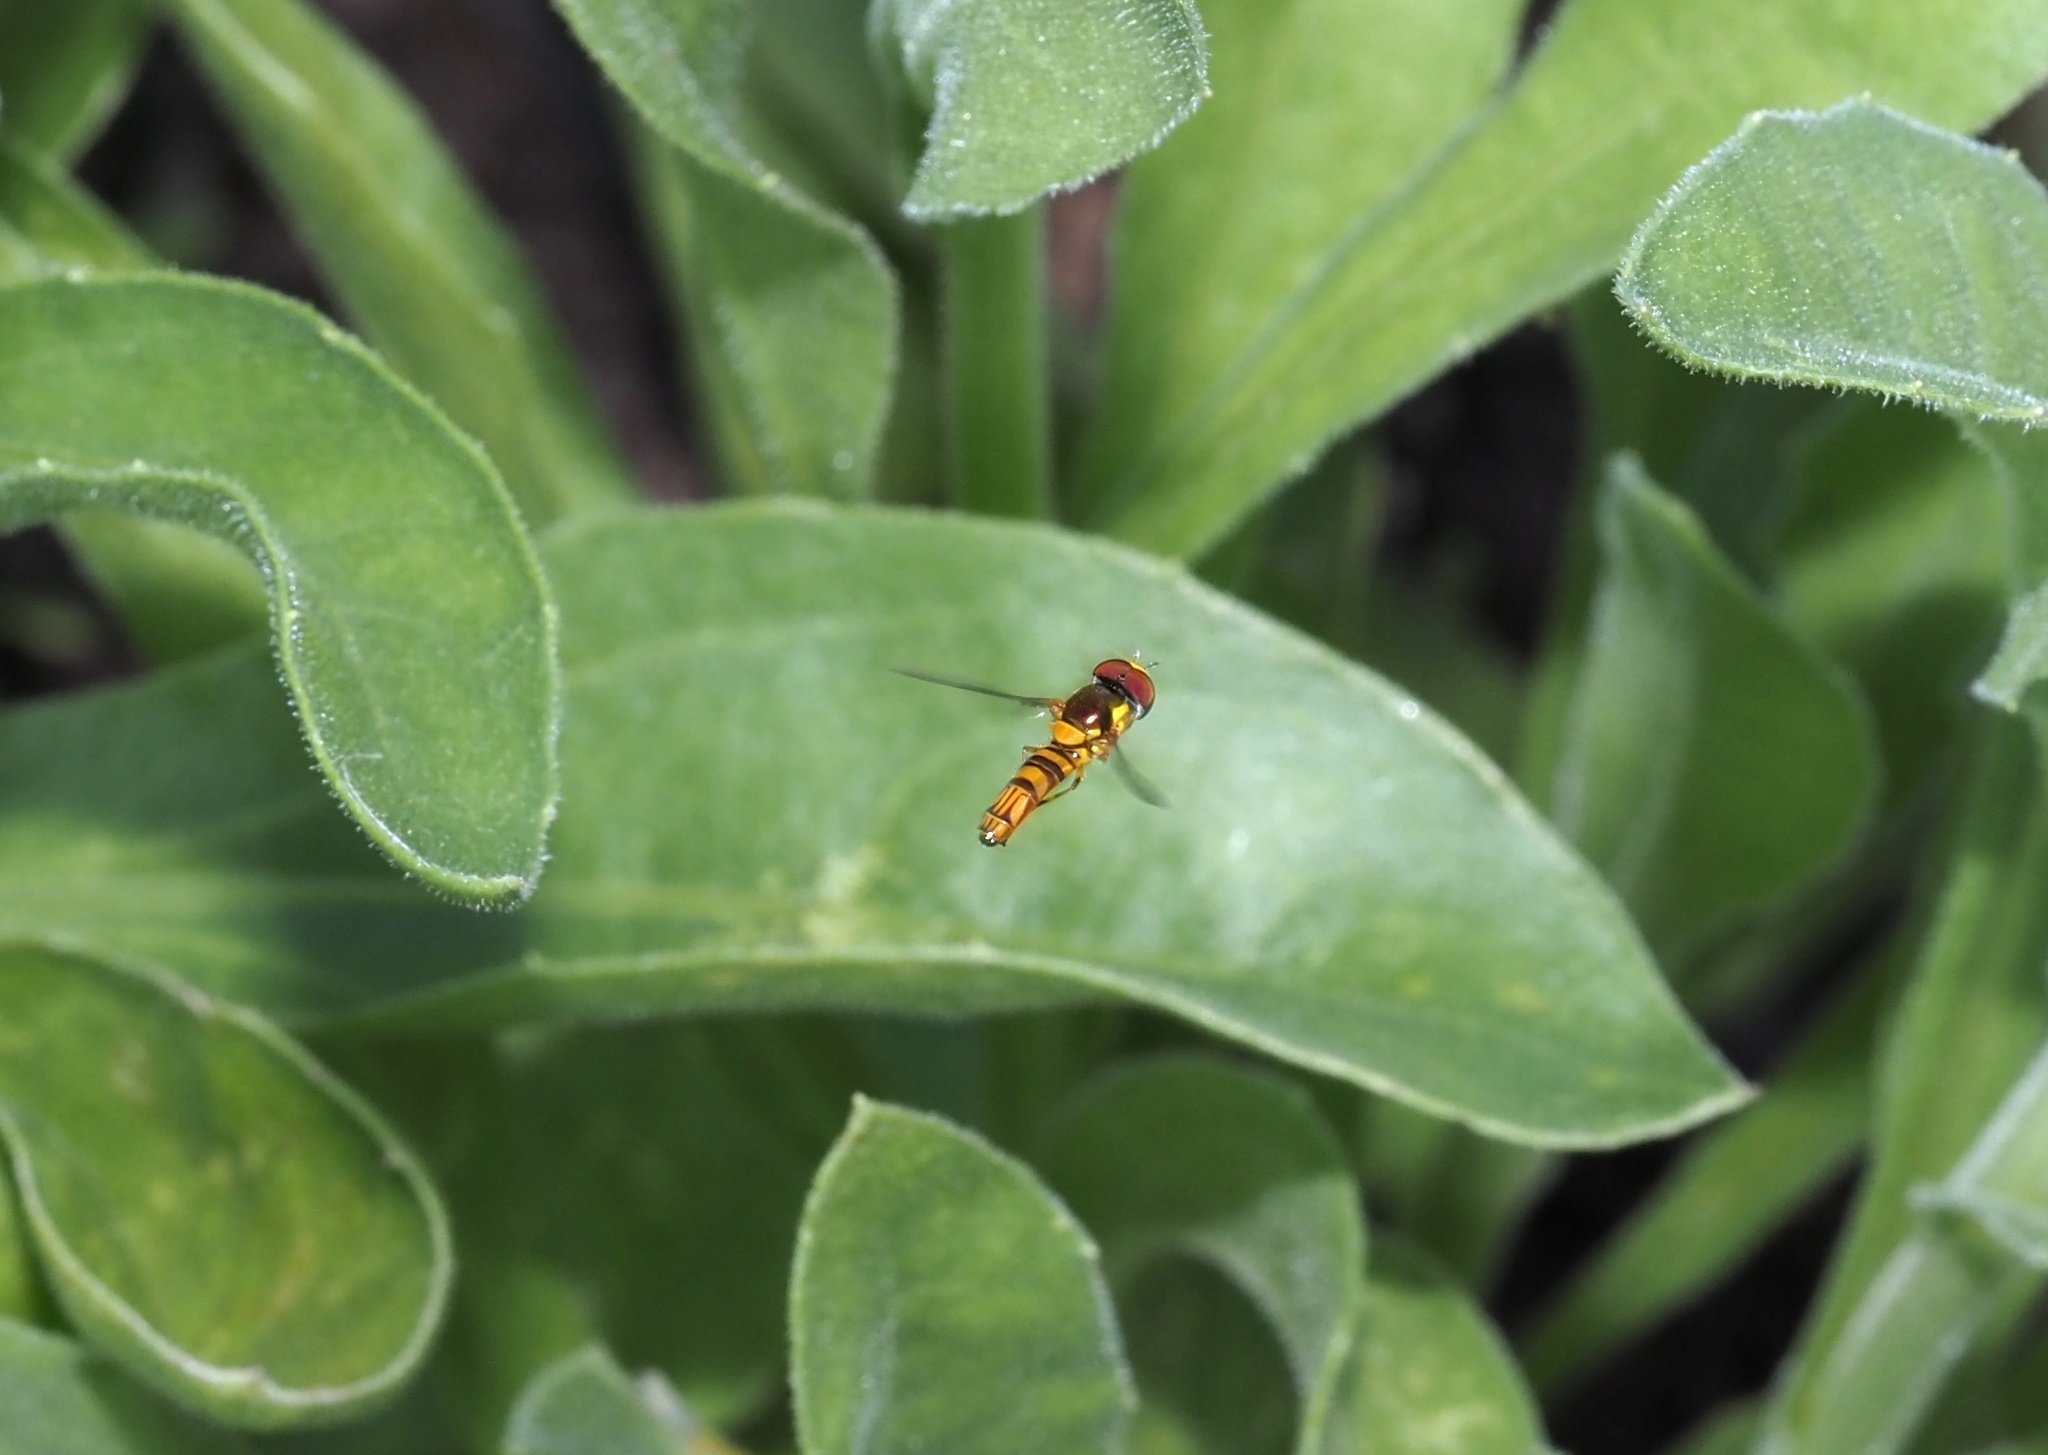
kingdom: Animalia
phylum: Arthropoda
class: Insecta
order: Diptera
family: Syrphidae
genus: Allograpta
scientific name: Allograpta obliqua
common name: Common oblique syrphid
